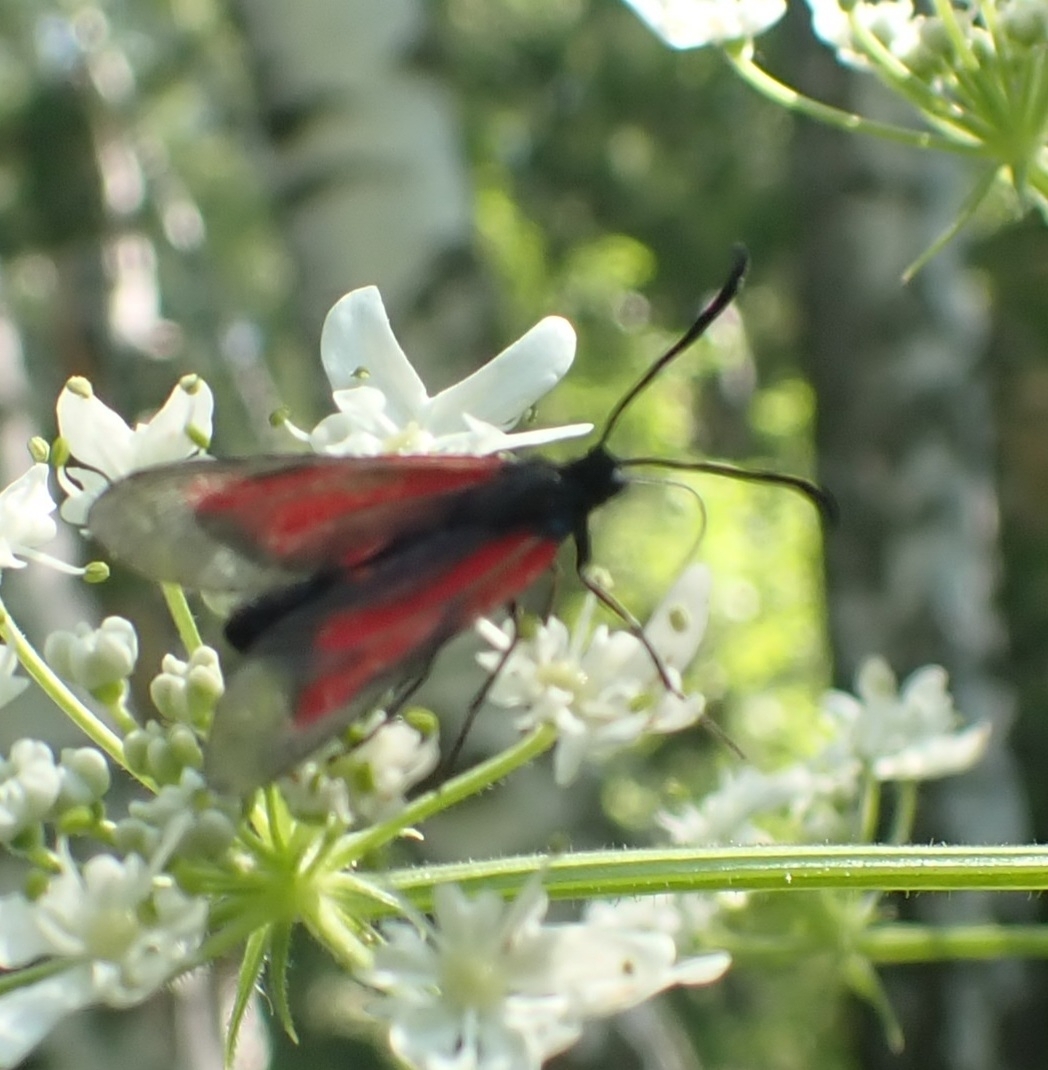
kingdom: Animalia
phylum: Arthropoda
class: Insecta
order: Lepidoptera
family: Zygaenidae
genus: Zygaena
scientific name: Zygaena osterodensis
